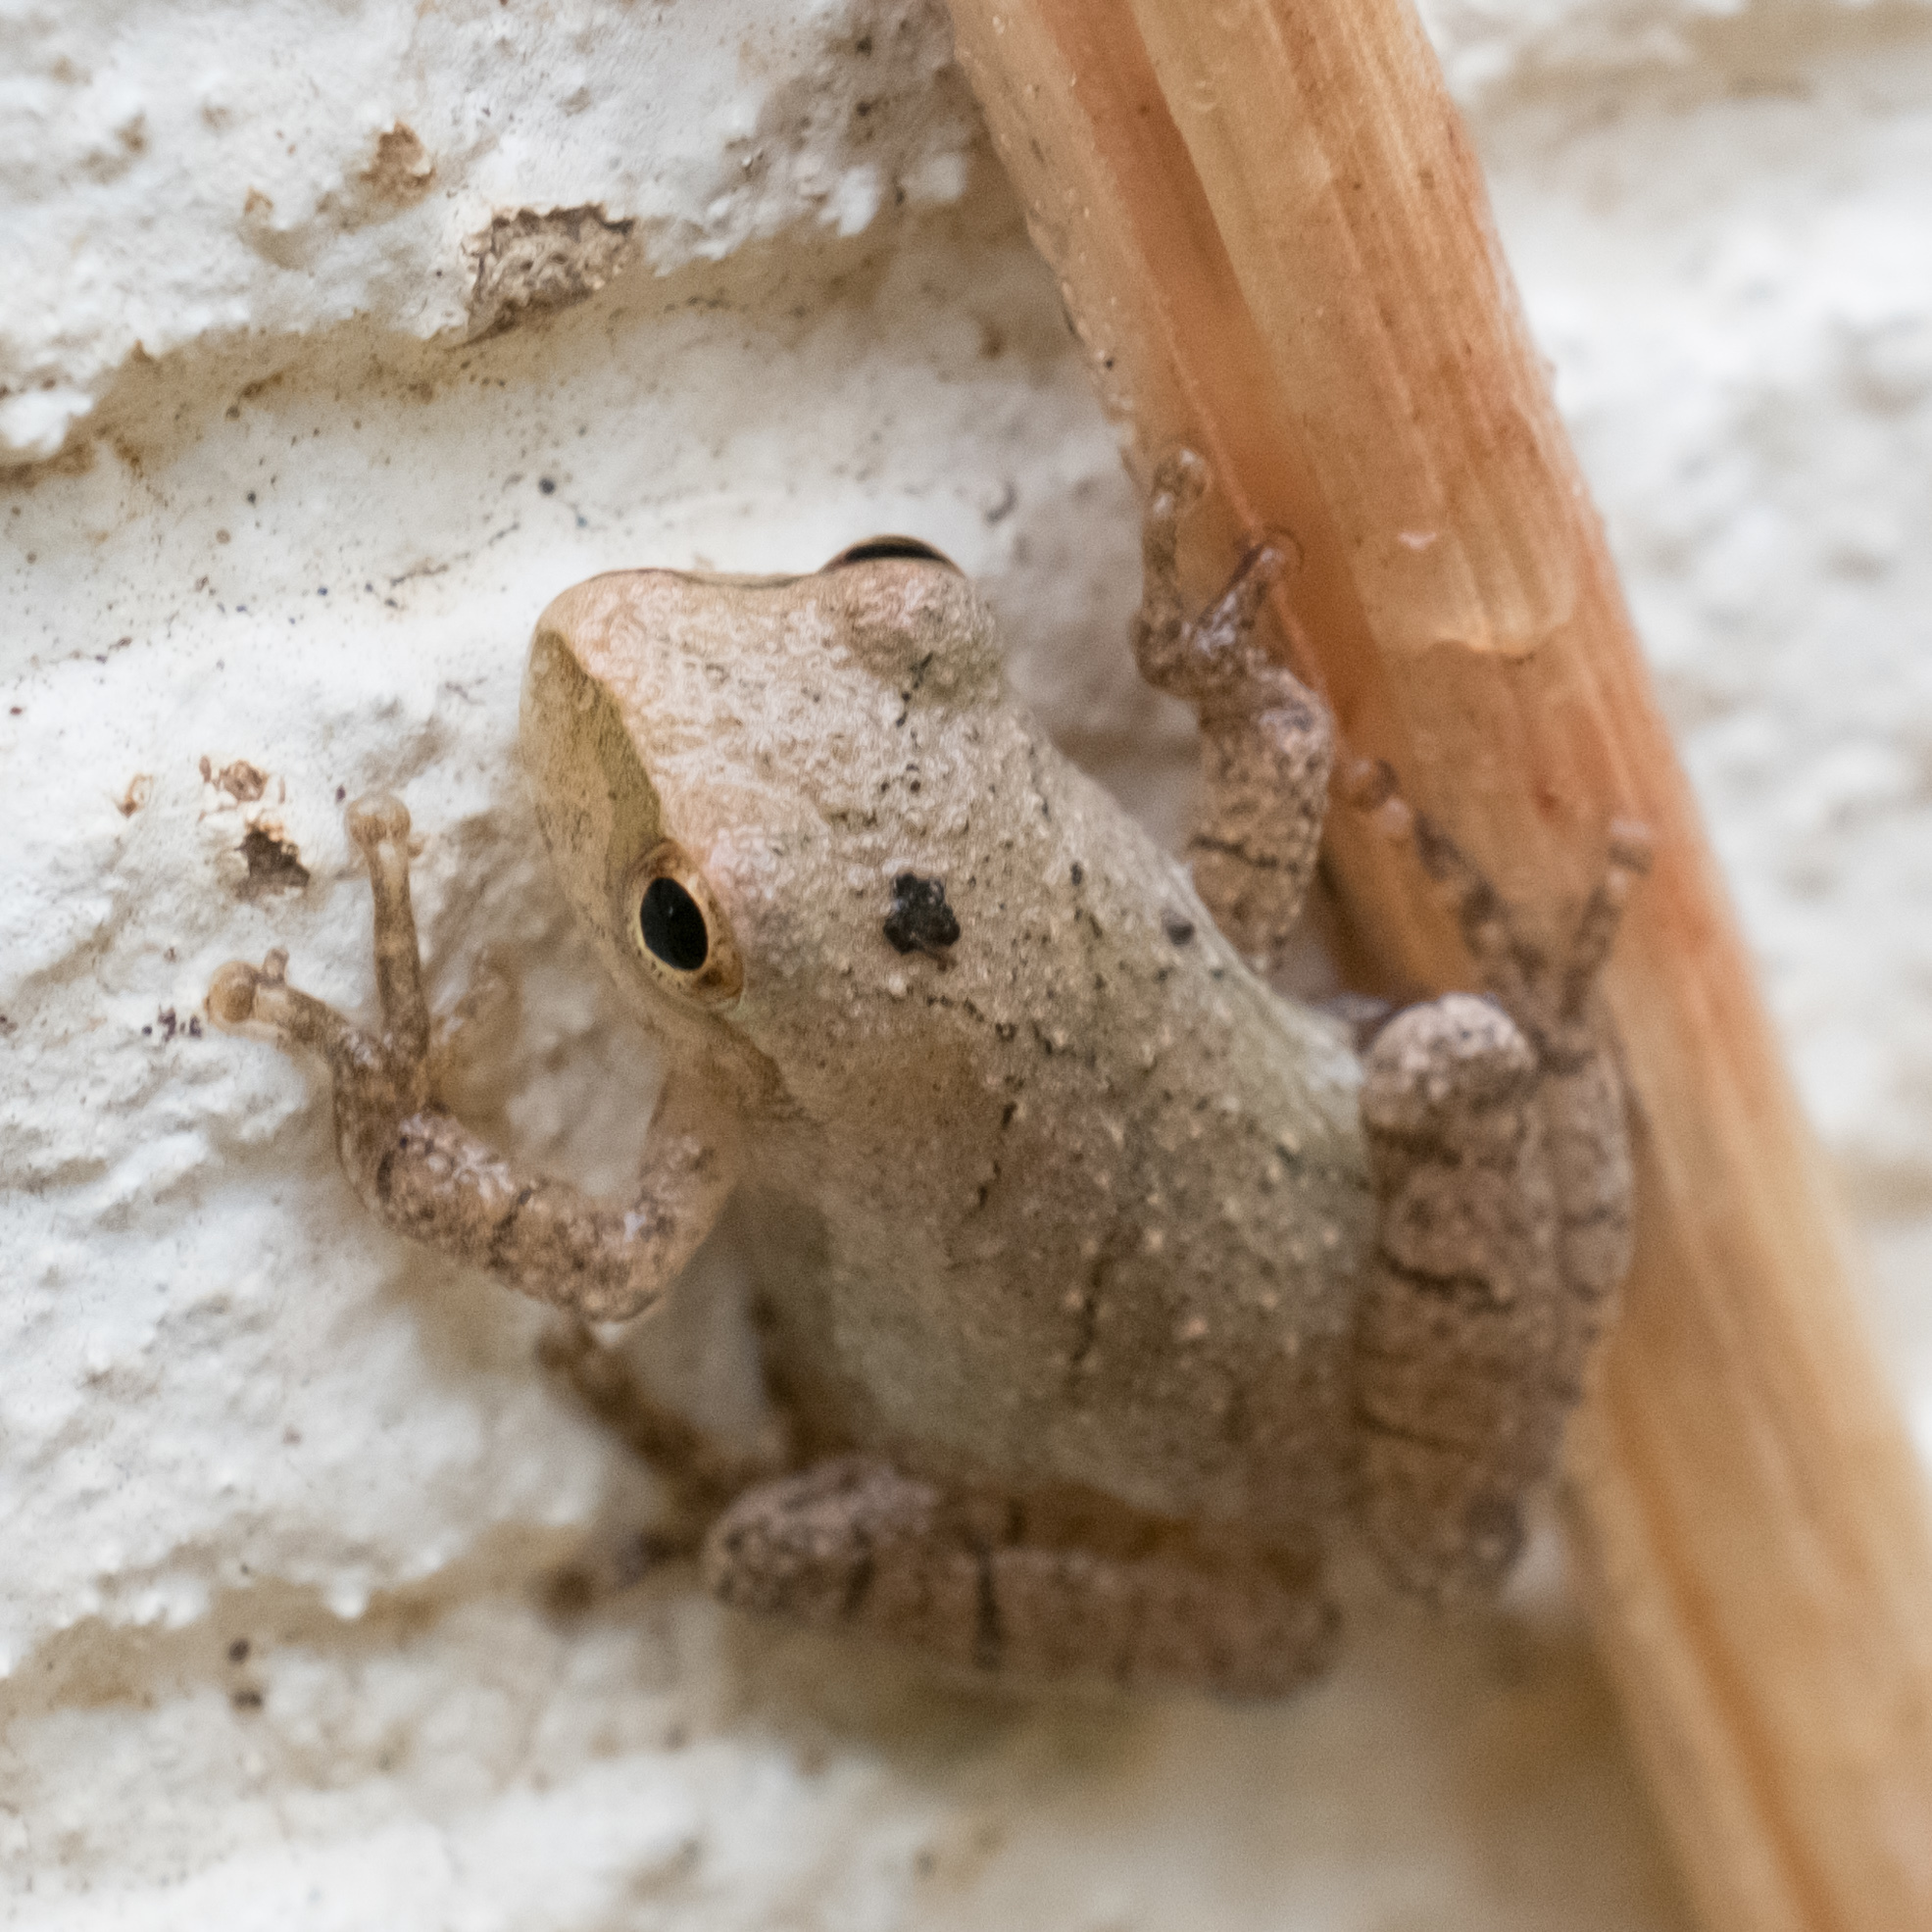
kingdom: Animalia
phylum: Chordata
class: Amphibia
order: Anura
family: Hylidae
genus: Pseudacris
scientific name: Pseudacris crucifer
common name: Spring peeper
